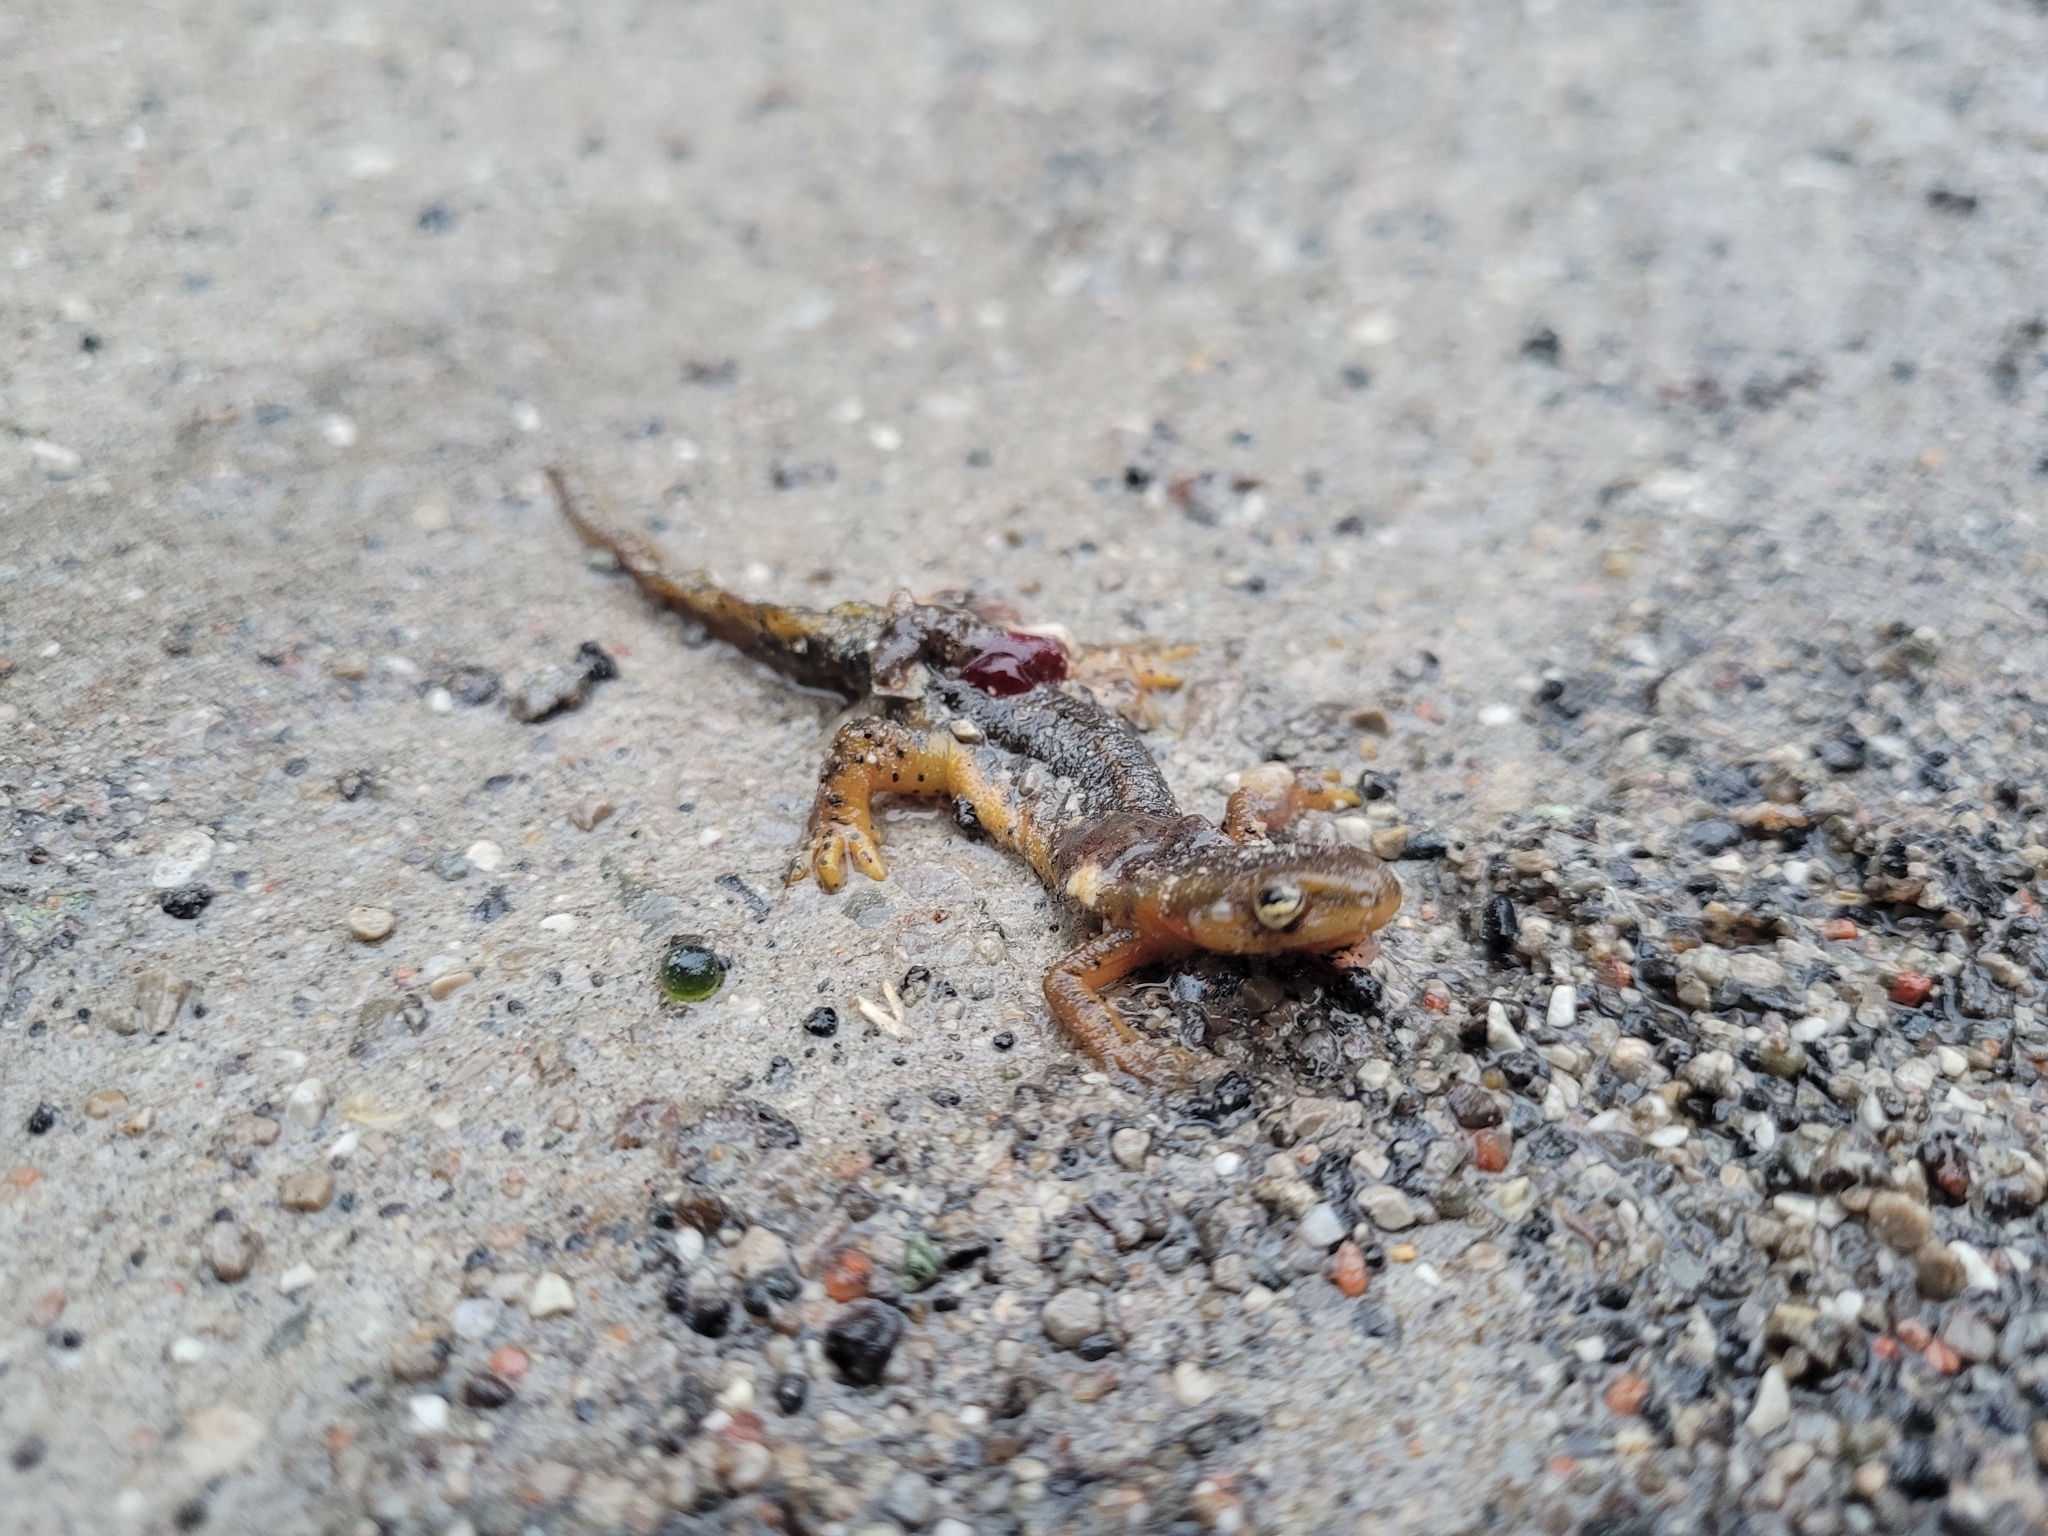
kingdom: Animalia
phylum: Chordata
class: Amphibia
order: Caudata
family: Salamandridae
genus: Notophthalmus
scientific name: Notophthalmus viridescens
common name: Eastern newt
